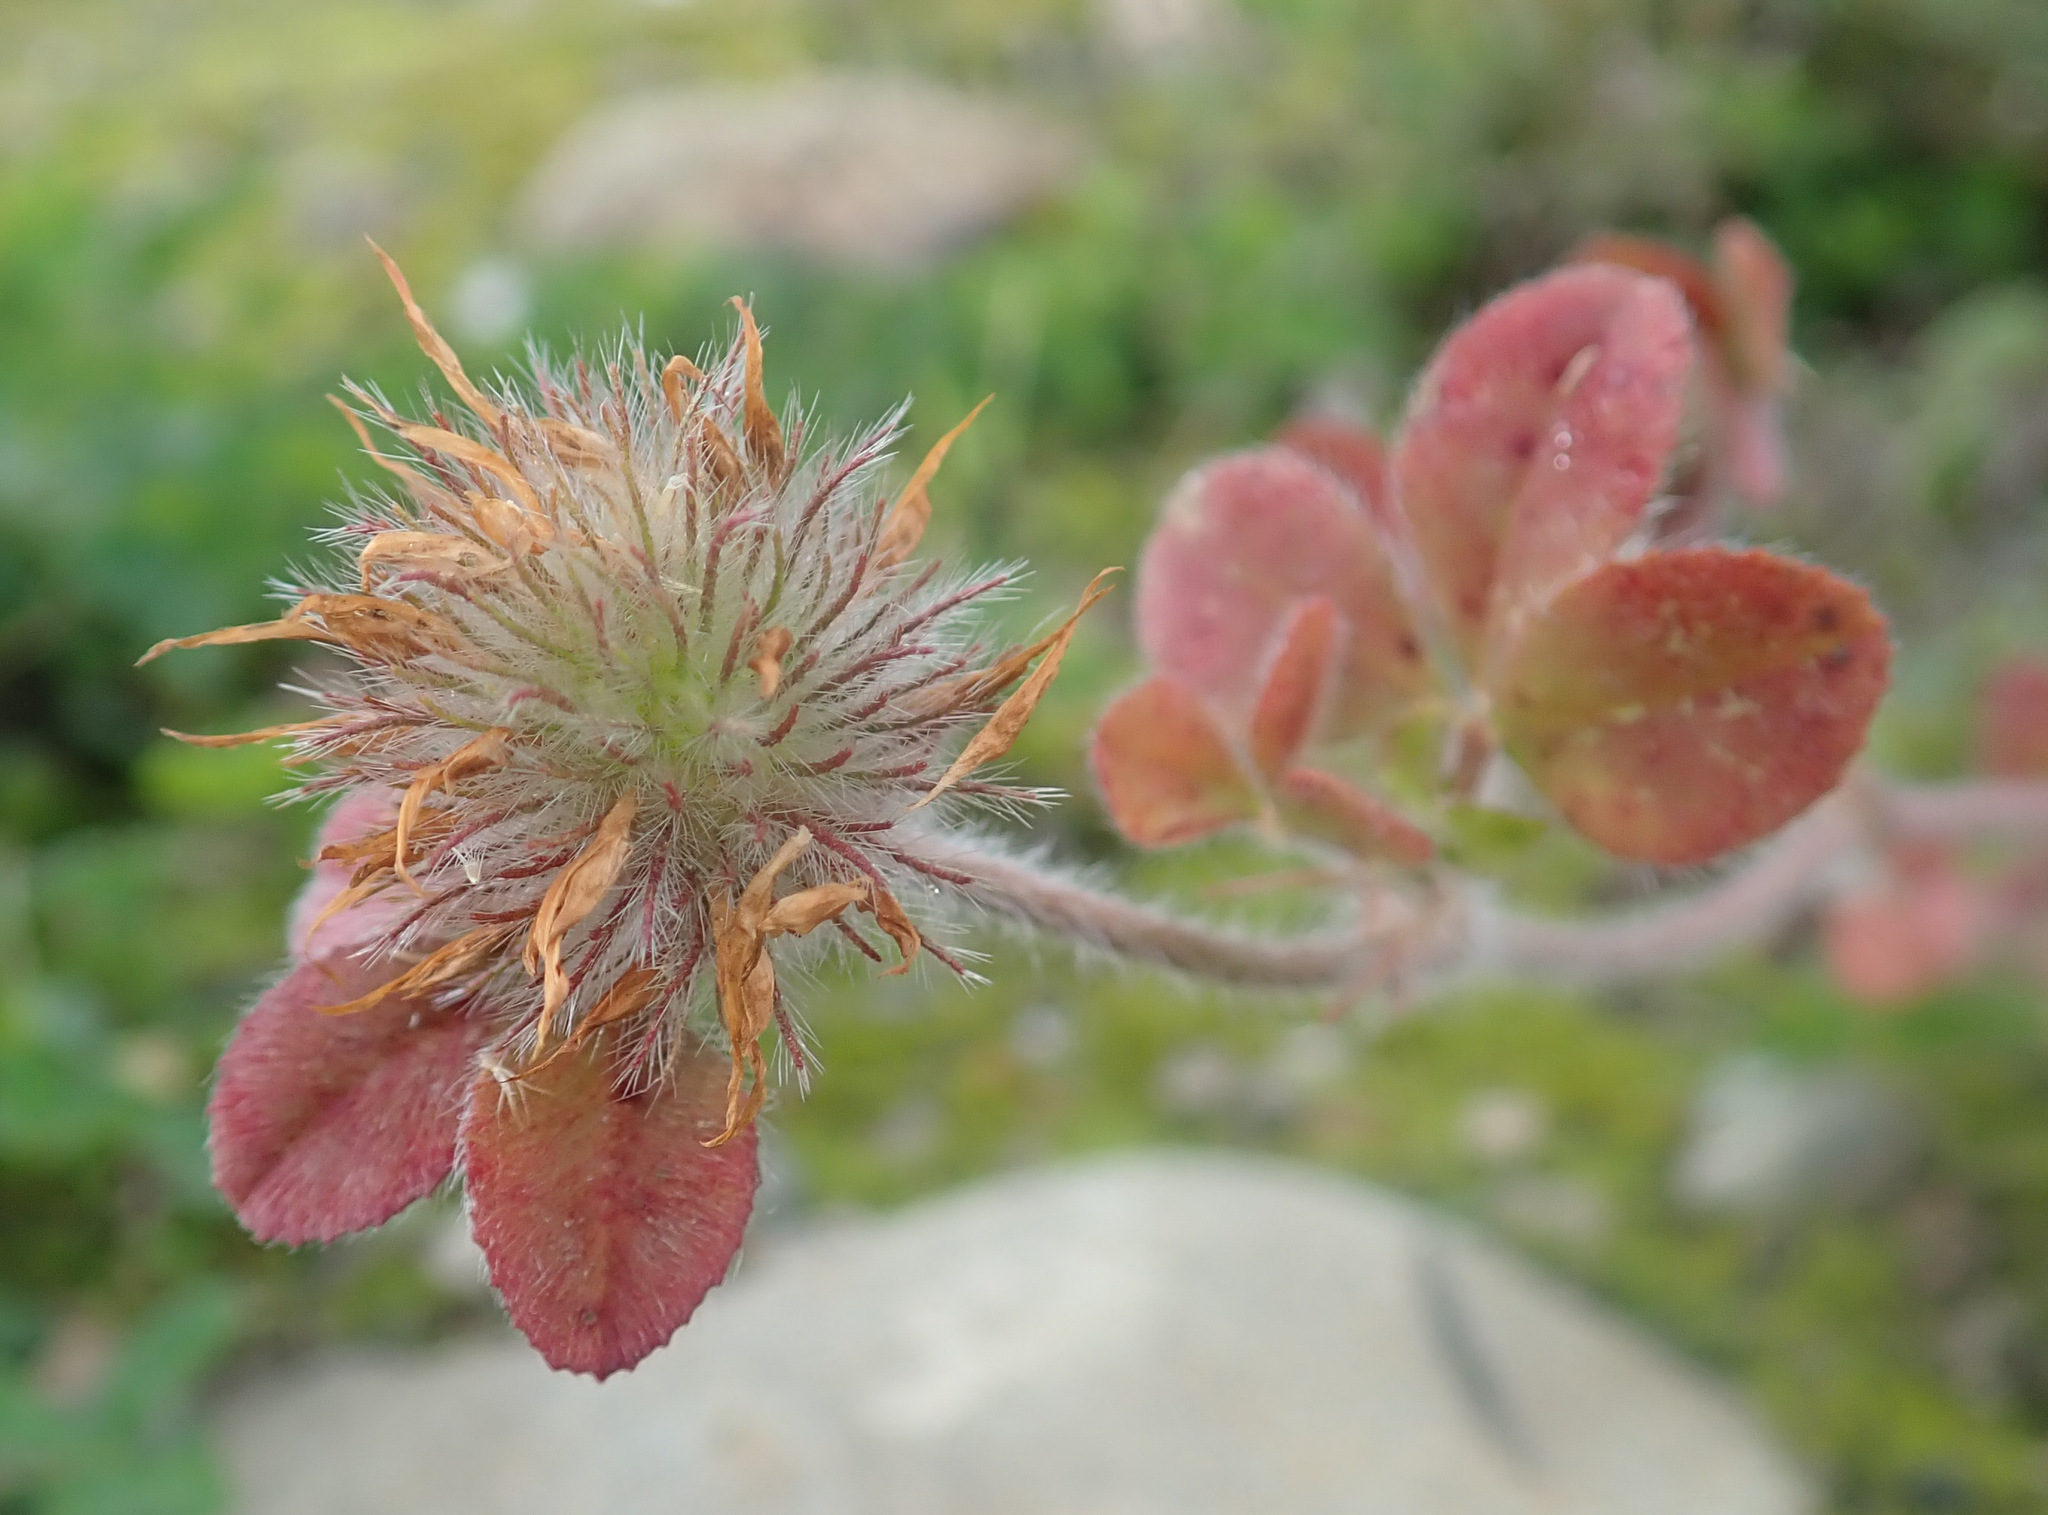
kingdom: Plantae
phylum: Tracheophyta
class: Magnoliopsida
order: Fabales
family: Fabaceae
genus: Trifolium
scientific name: Trifolium hirtum
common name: Rose clover
